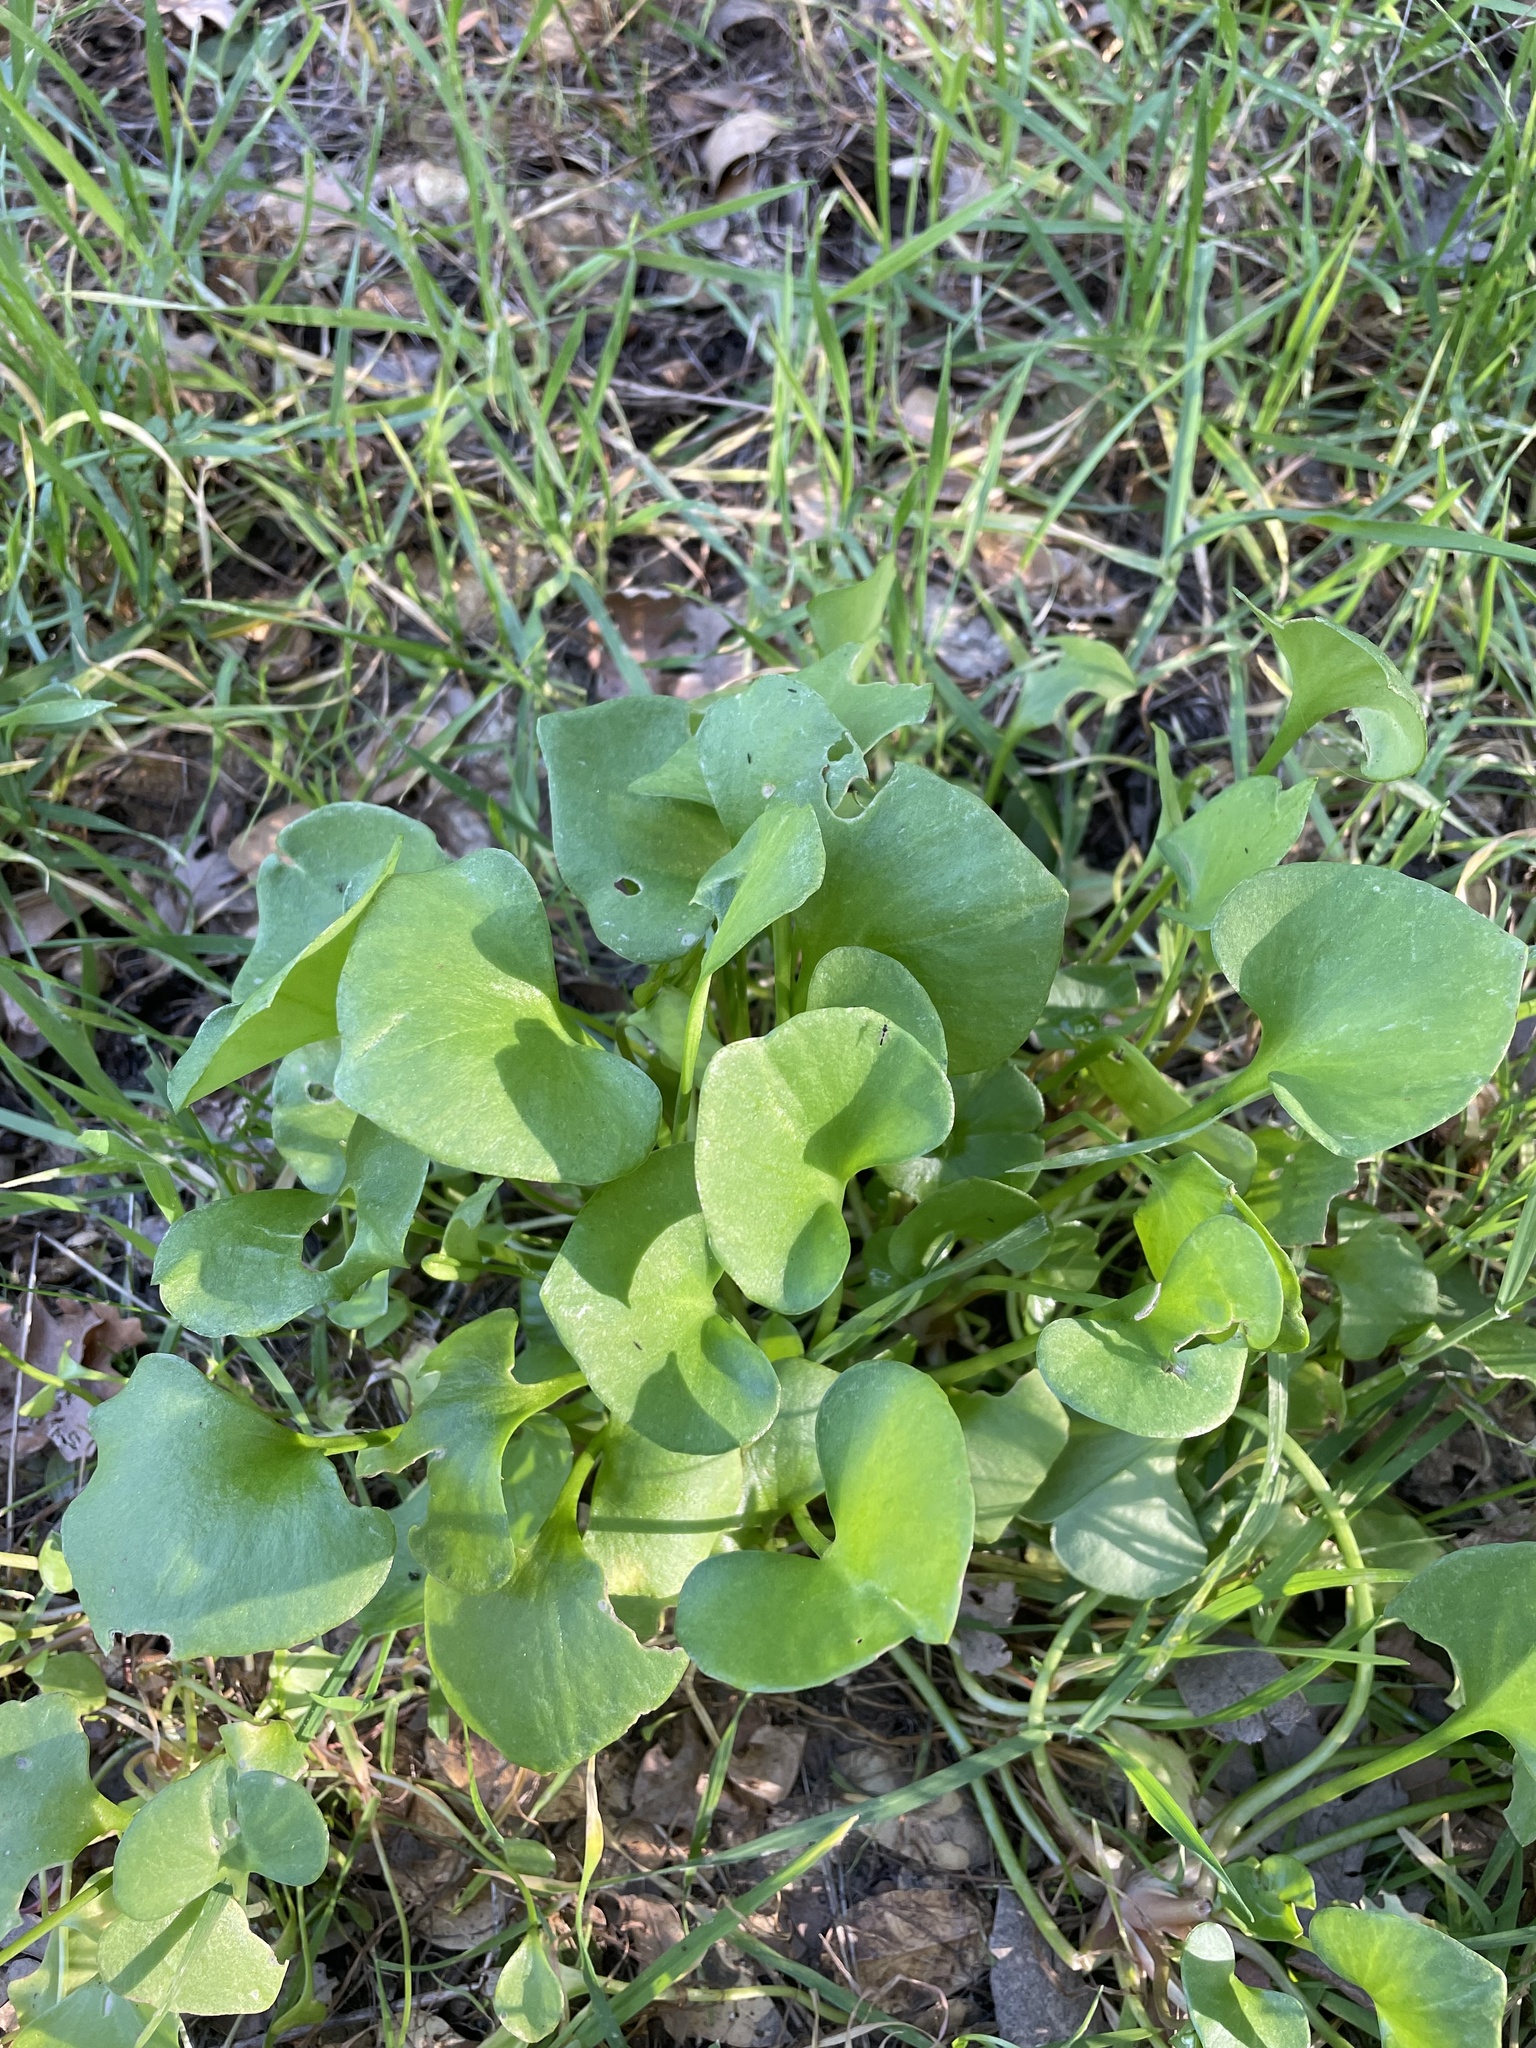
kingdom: Plantae
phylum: Tracheophyta
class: Magnoliopsida
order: Caryophyllales
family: Montiaceae
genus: Claytonia
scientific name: Claytonia perfoliata
